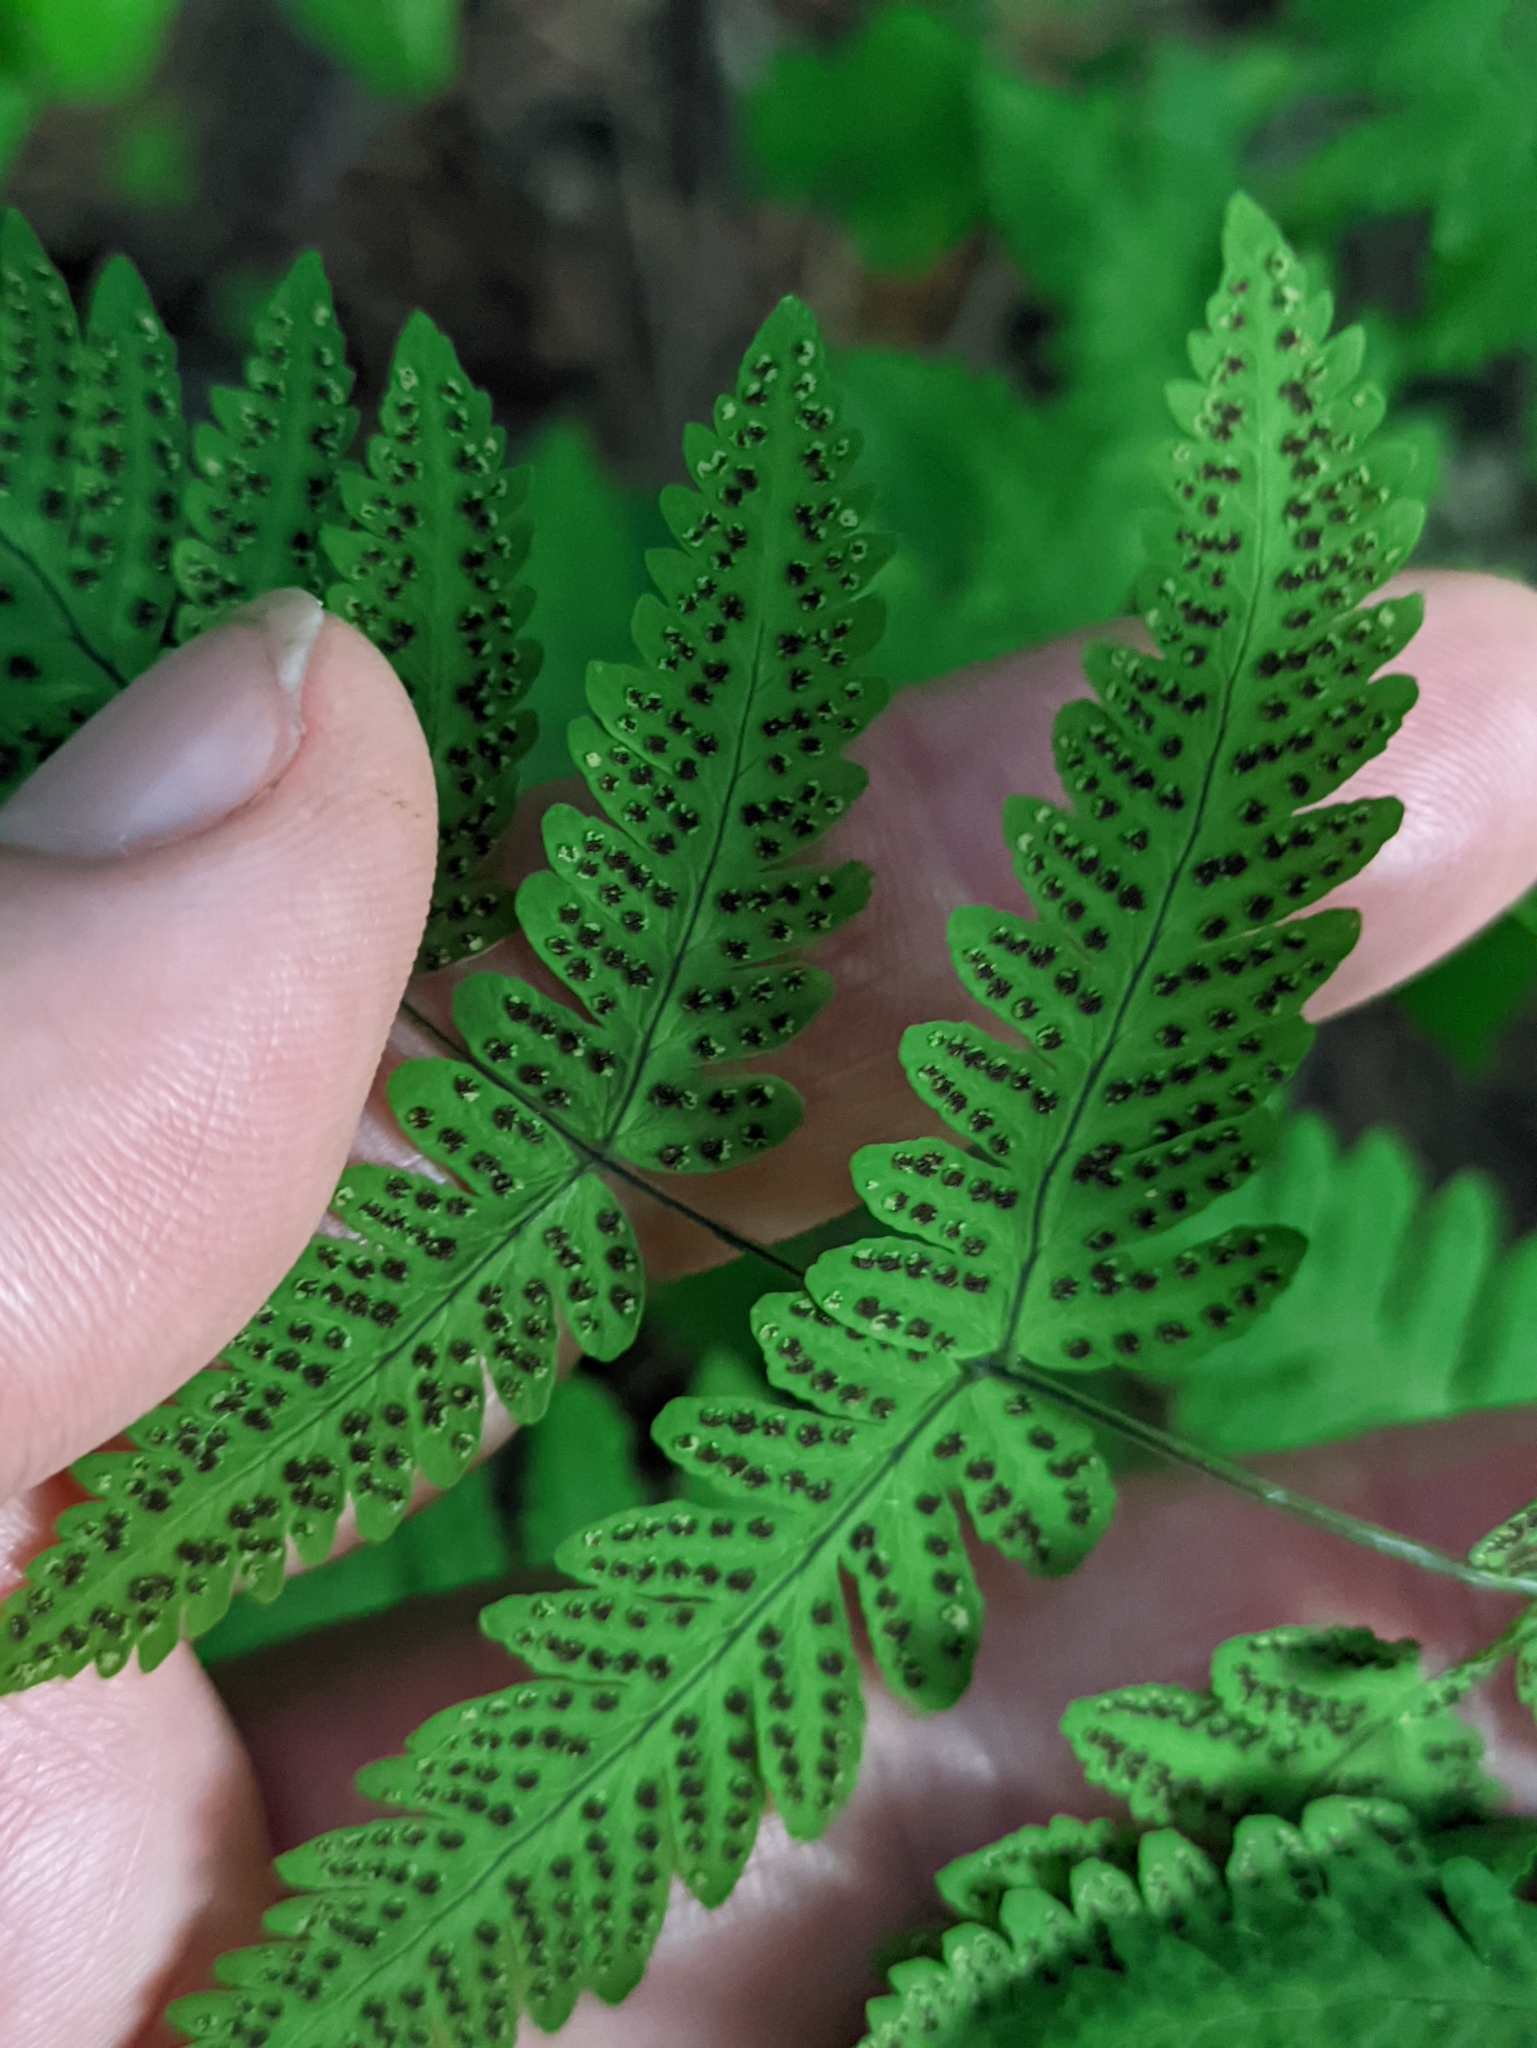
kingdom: Plantae
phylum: Tracheophyta
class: Polypodiopsida
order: Polypodiales
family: Cystopteridaceae
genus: Gymnocarpium
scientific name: Gymnocarpium dryopteris
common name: Oak fern
